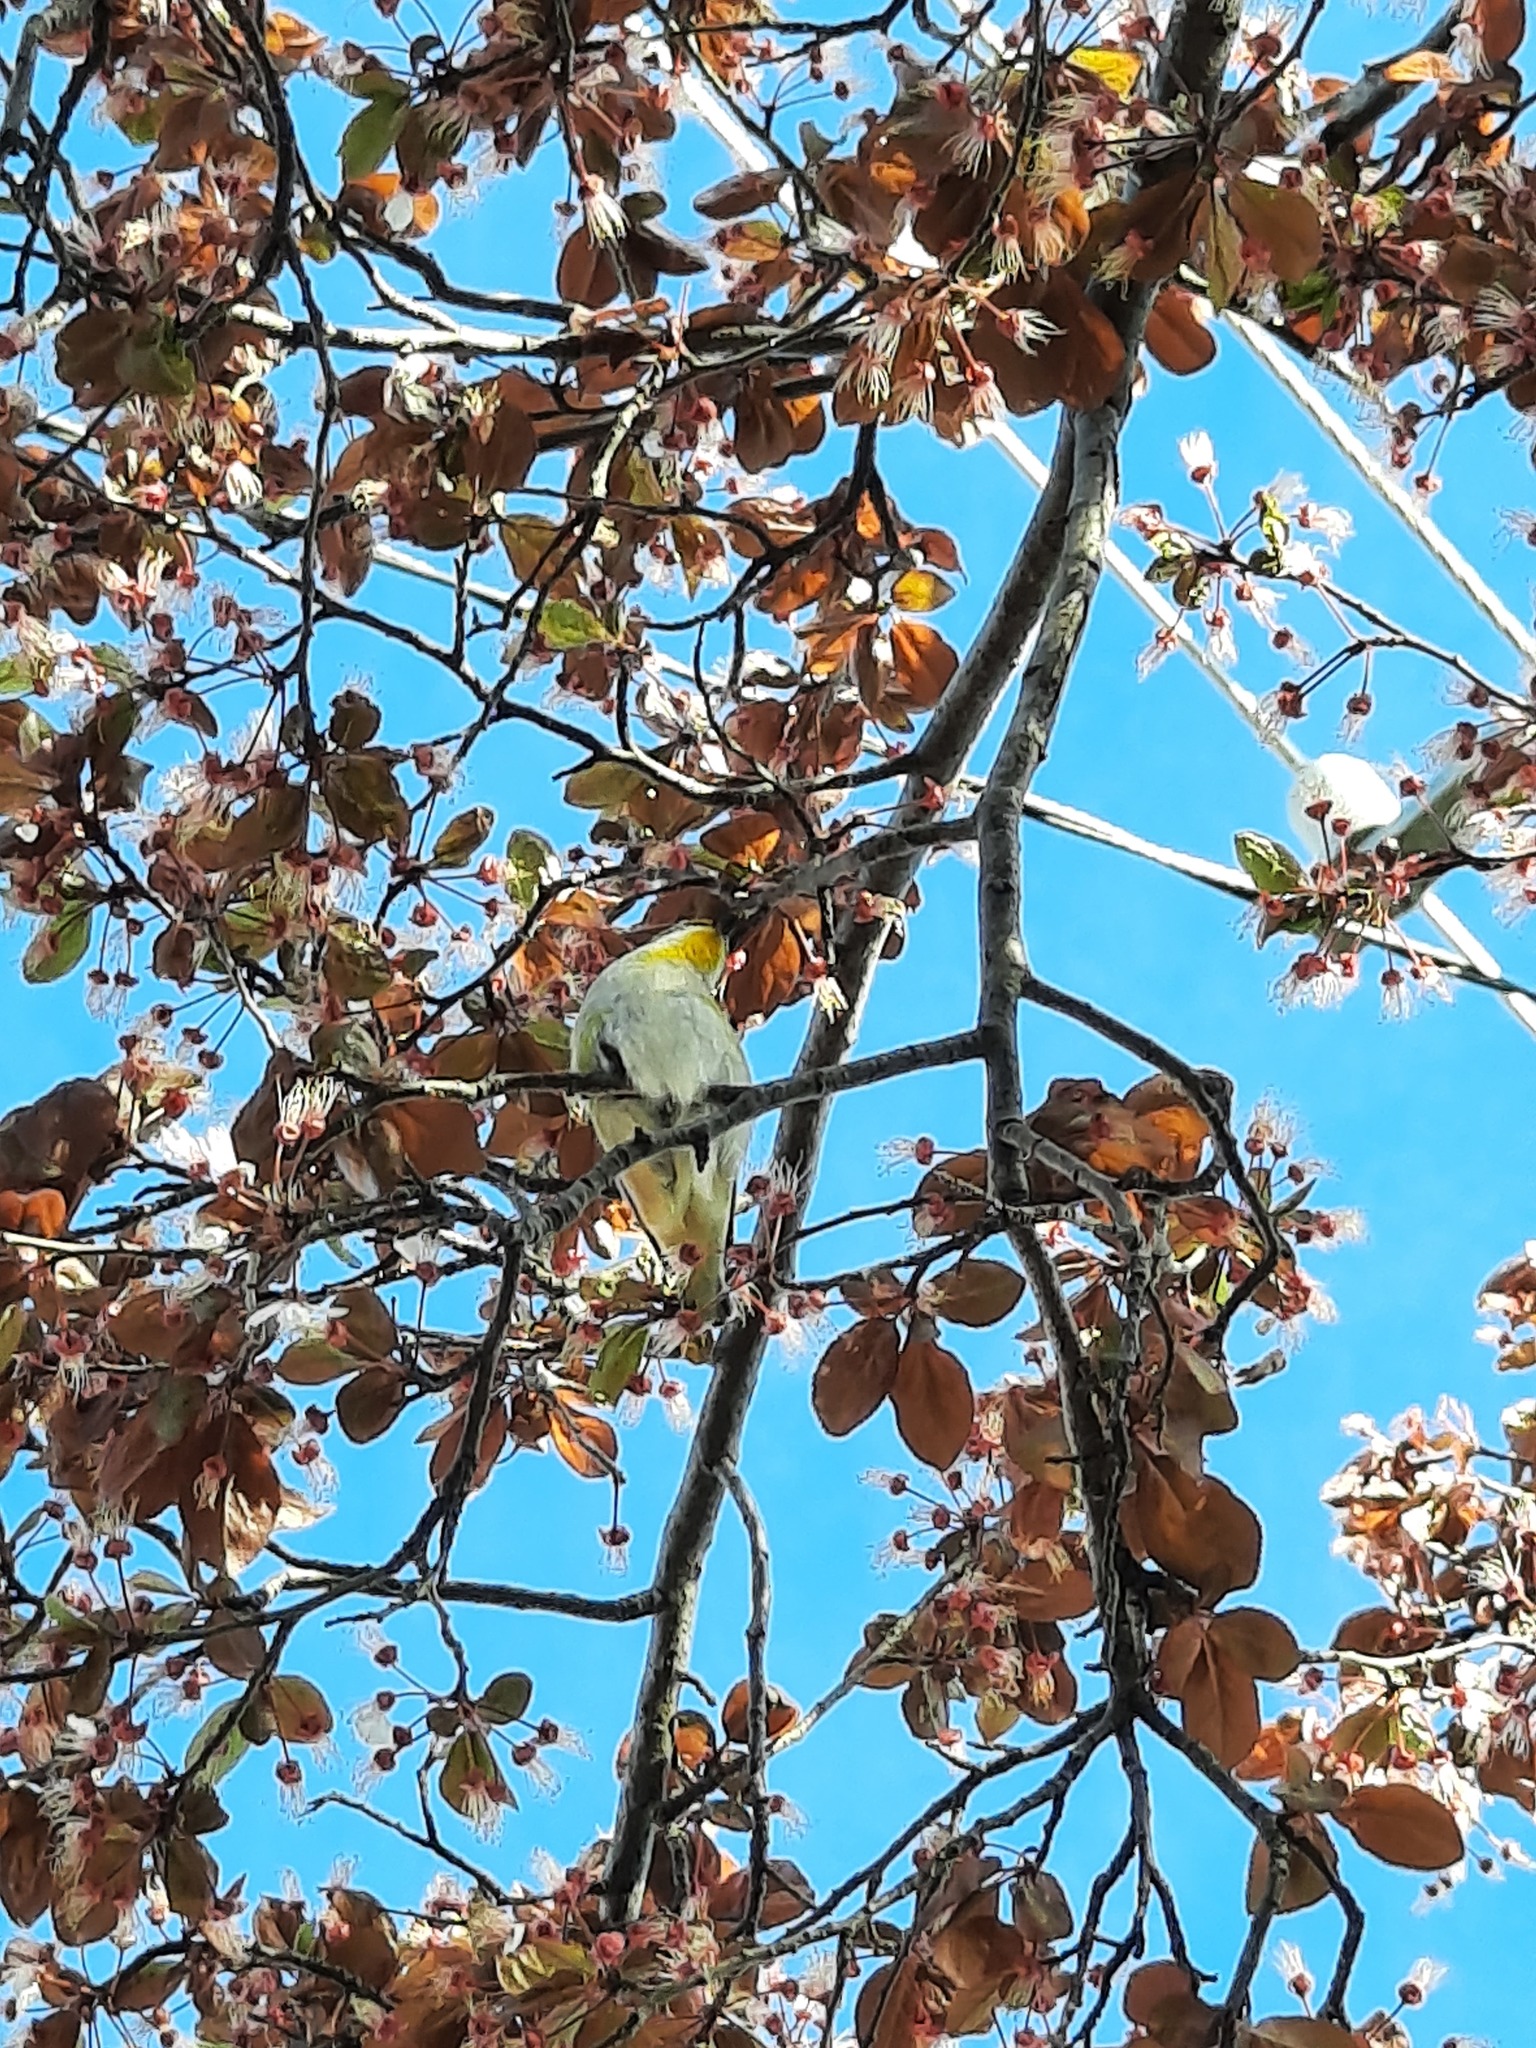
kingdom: Animalia
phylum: Chordata
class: Aves
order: Passeriformes
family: Pardalotidae
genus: Pardalotus
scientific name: Pardalotus striatus
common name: Striated pardalote
